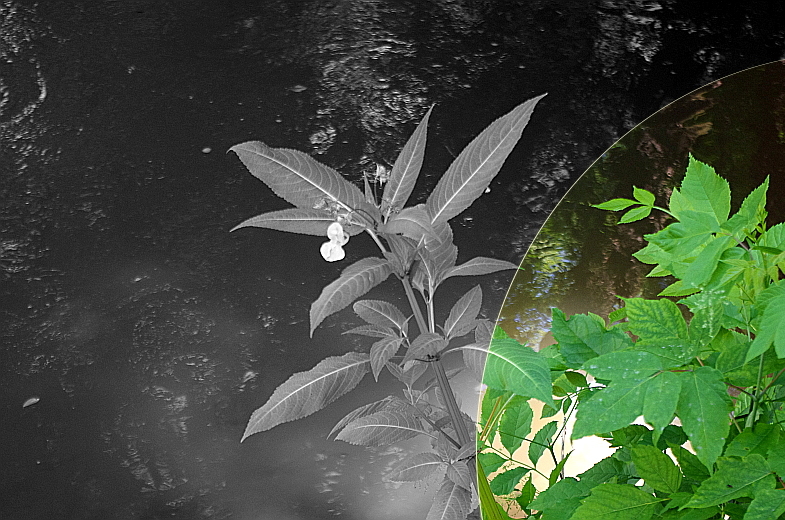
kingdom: Plantae
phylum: Tracheophyta
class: Magnoliopsida
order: Sapindales
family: Sapindaceae
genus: Acer
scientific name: Acer negundo
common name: Ashleaf maple
